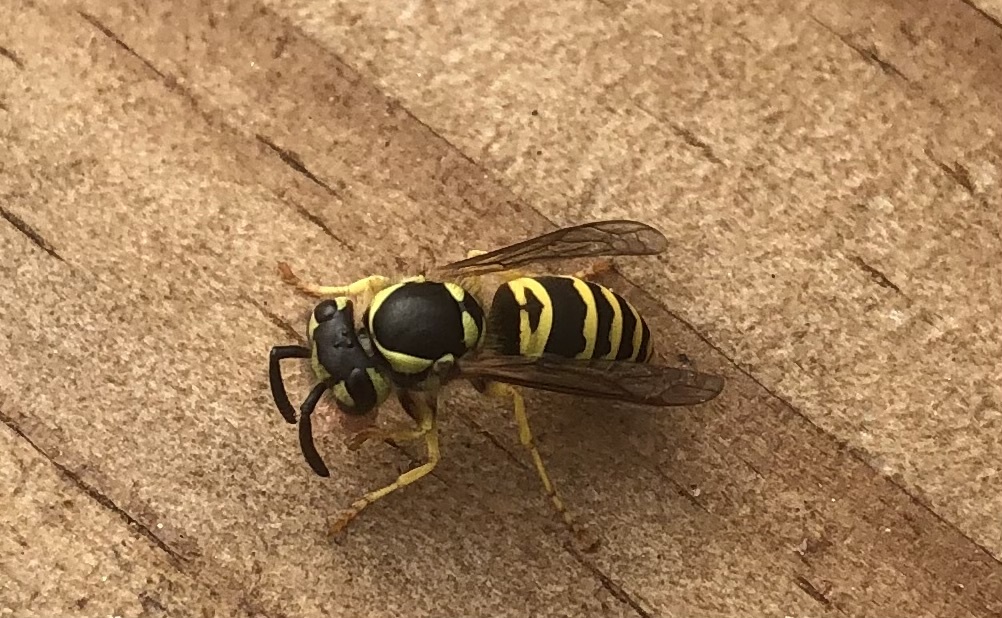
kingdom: Animalia
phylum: Arthropoda
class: Insecta
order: Hymenoptera
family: Vespidae
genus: Vespula
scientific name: Vespula maculifrons
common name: Eastern yellowjacket
